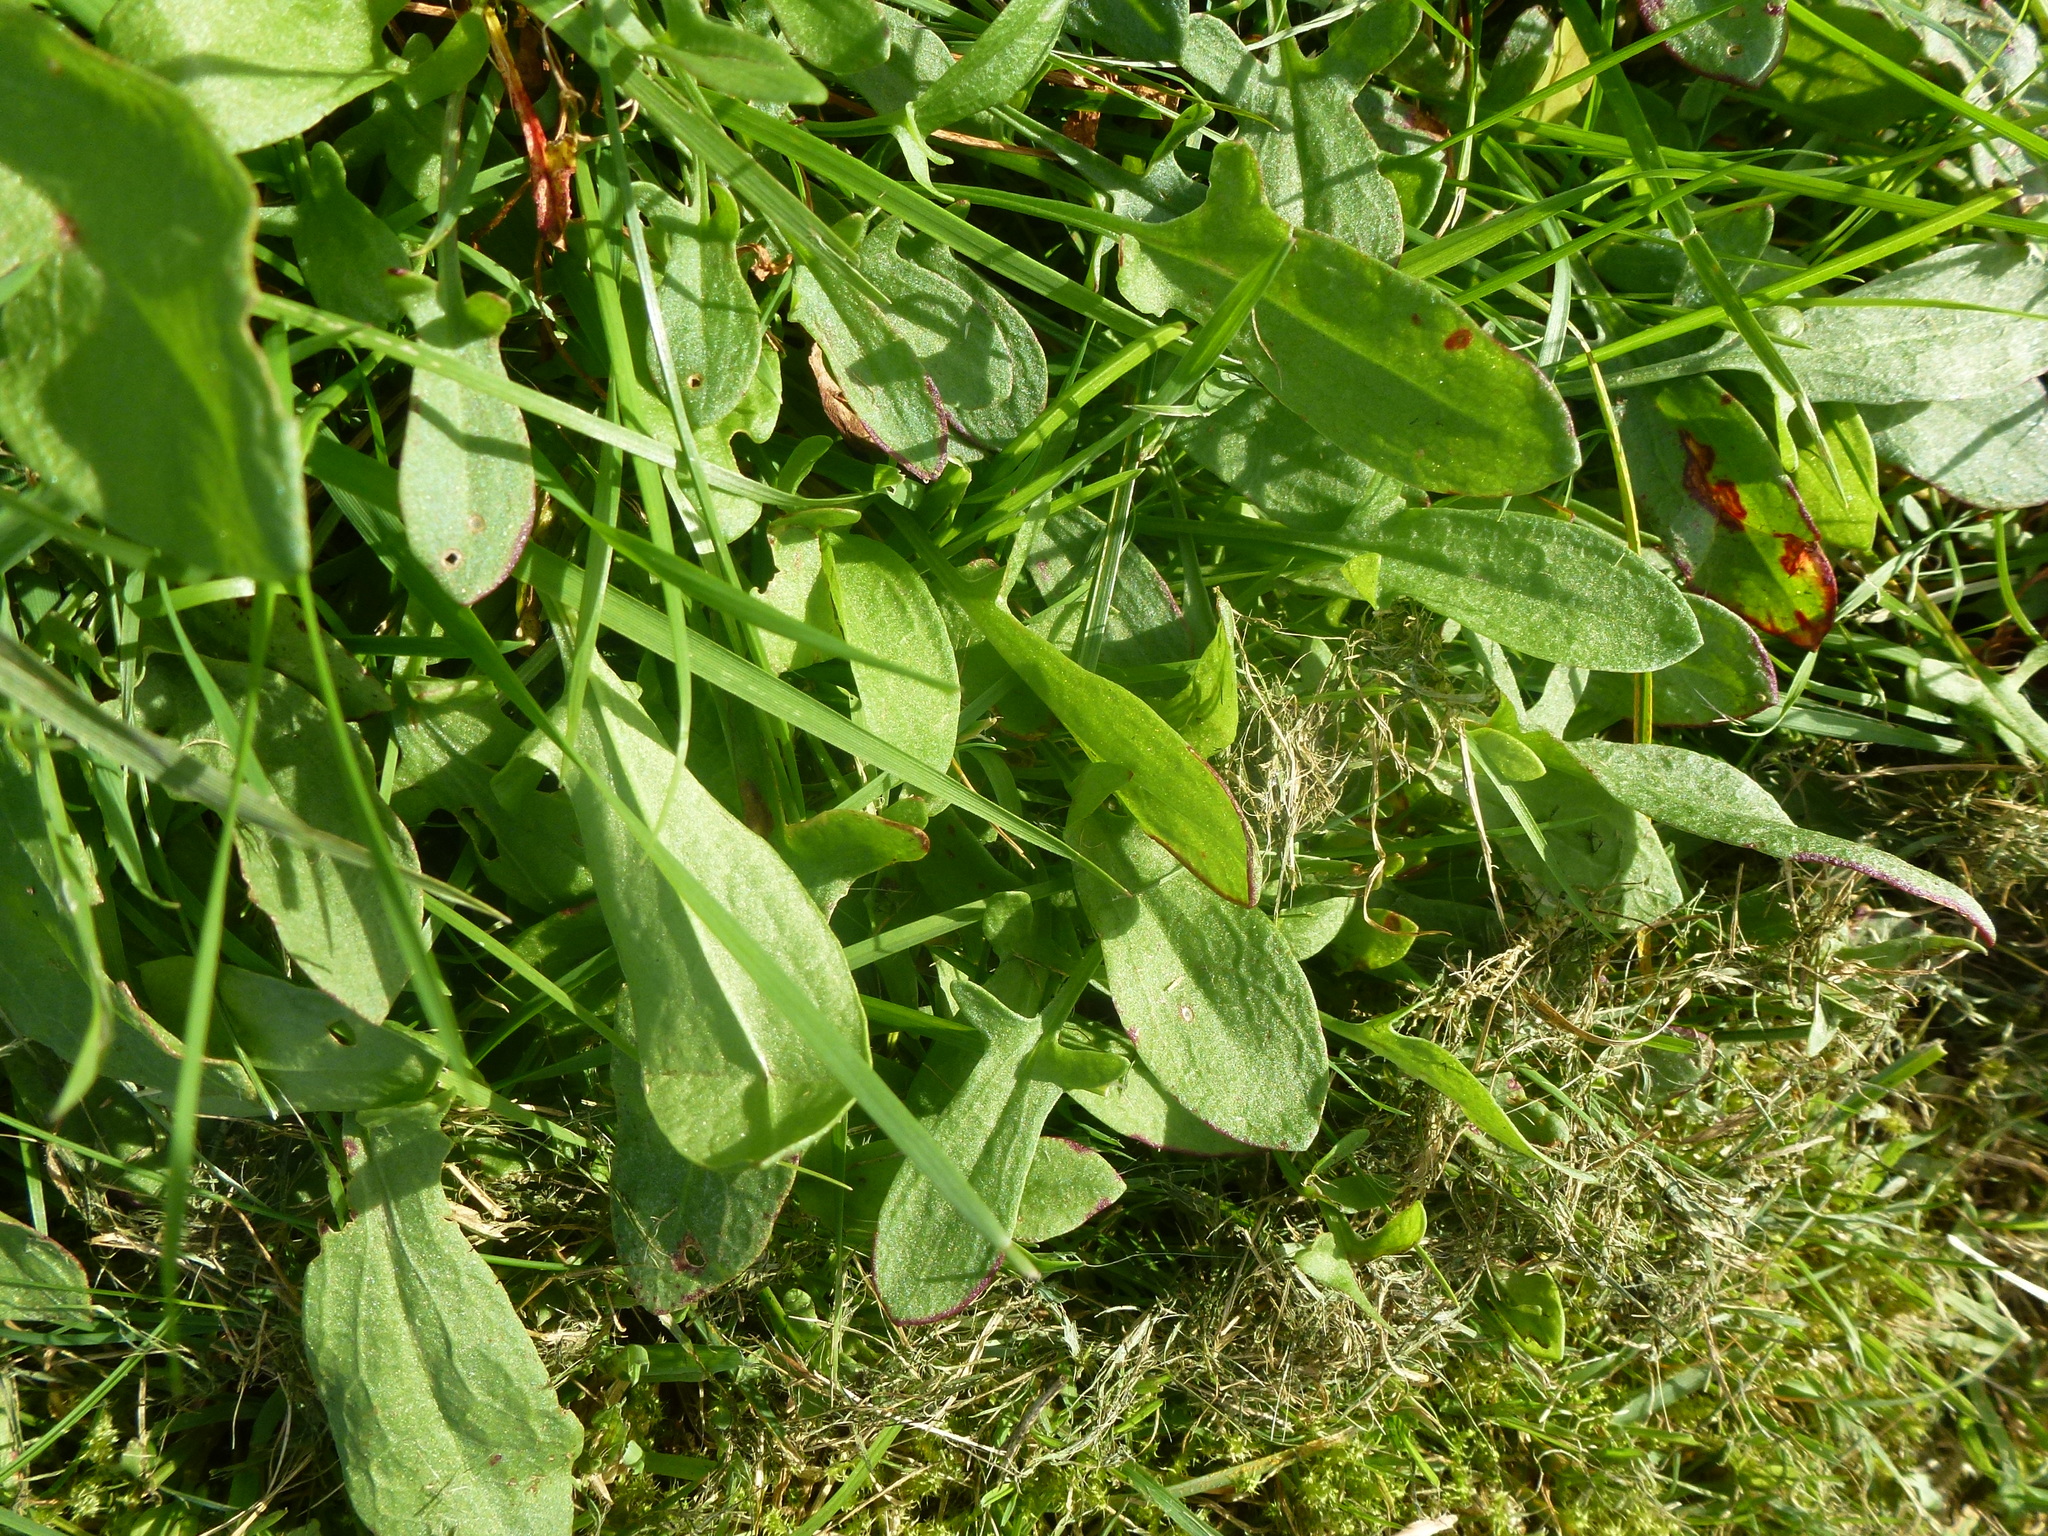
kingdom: Plantae
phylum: Tracheophyta
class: Magnoliopsida
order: Caryophyllales
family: Polygonaceae
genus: Rumex
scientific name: Rumex acetosella
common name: Common sheep sorrel
